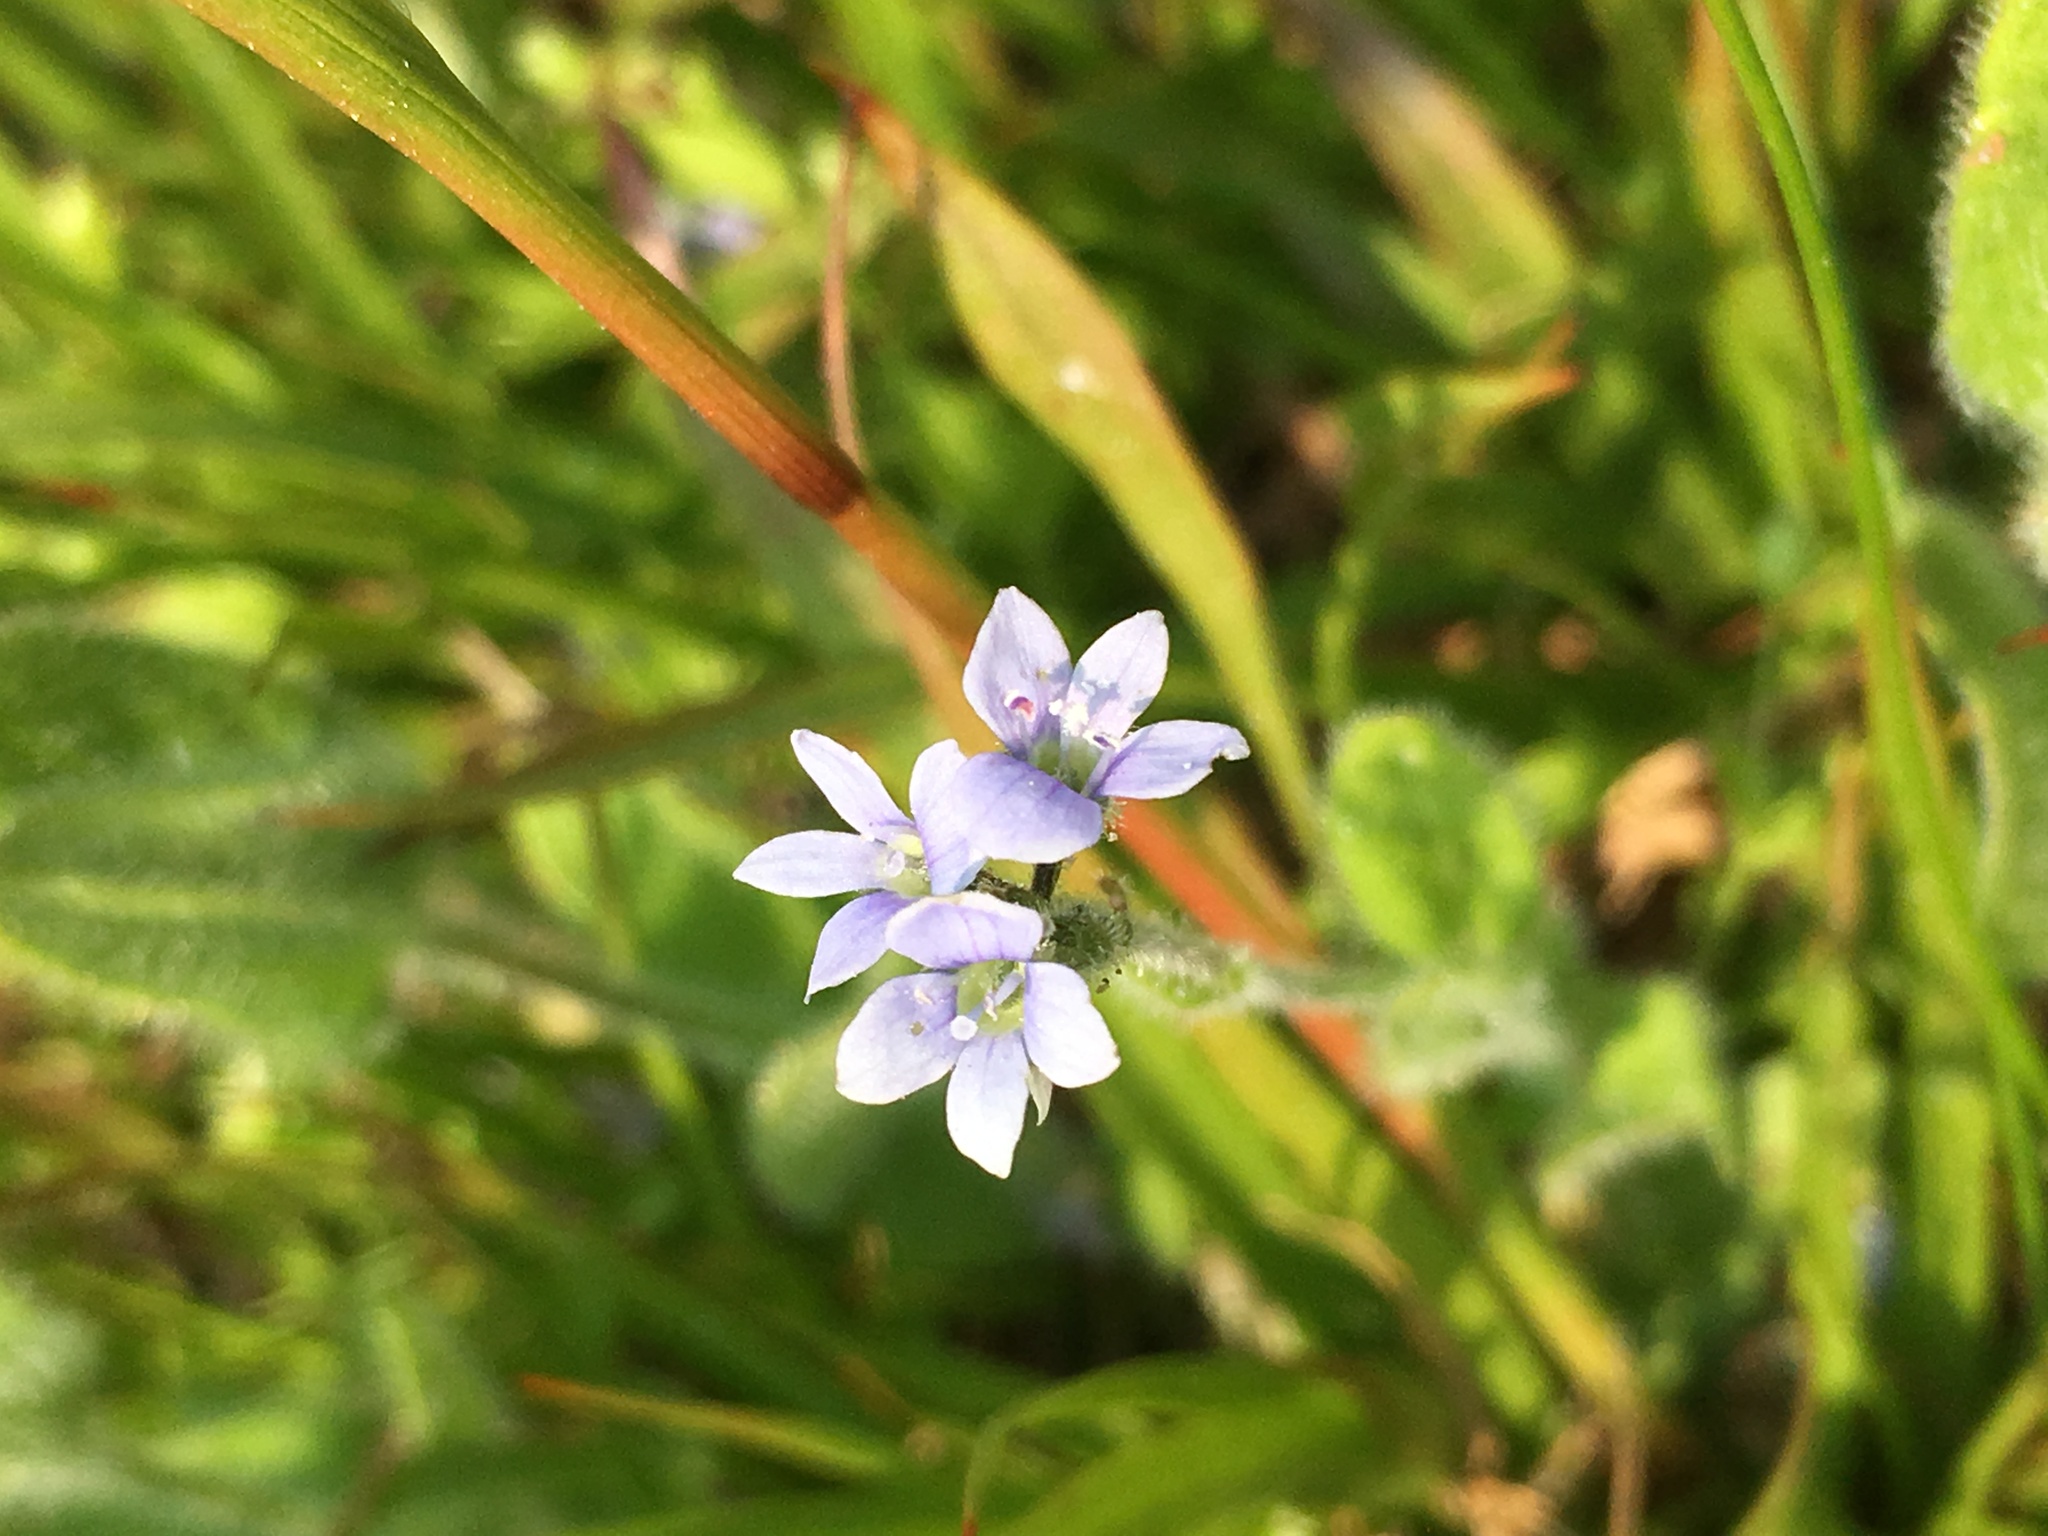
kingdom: Plantae
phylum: Tracheophyta
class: Magnoliopsida
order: Lamiales
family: Plantaginaceae
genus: Veronica
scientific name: Veronica wormskjoldii
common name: American alpine speedwell
